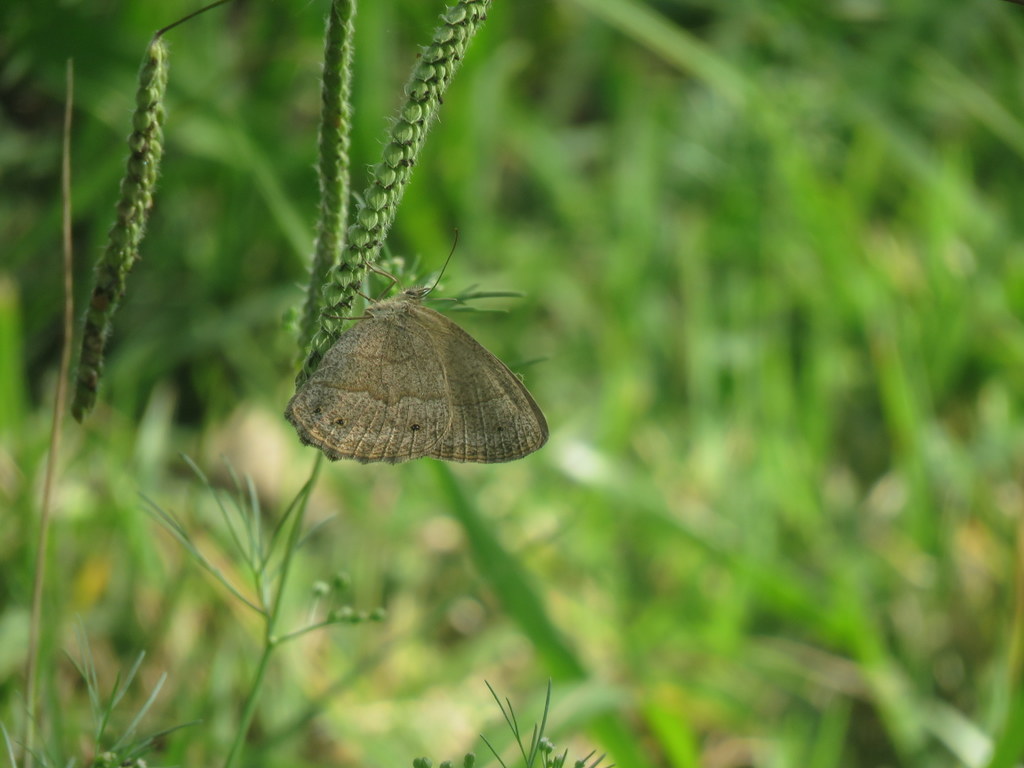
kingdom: Animalia
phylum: Arthropoda
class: Insecta
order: Lepidoptera
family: Nymphalidae
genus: Yphthimoides
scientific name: Yphthimoides celmis
